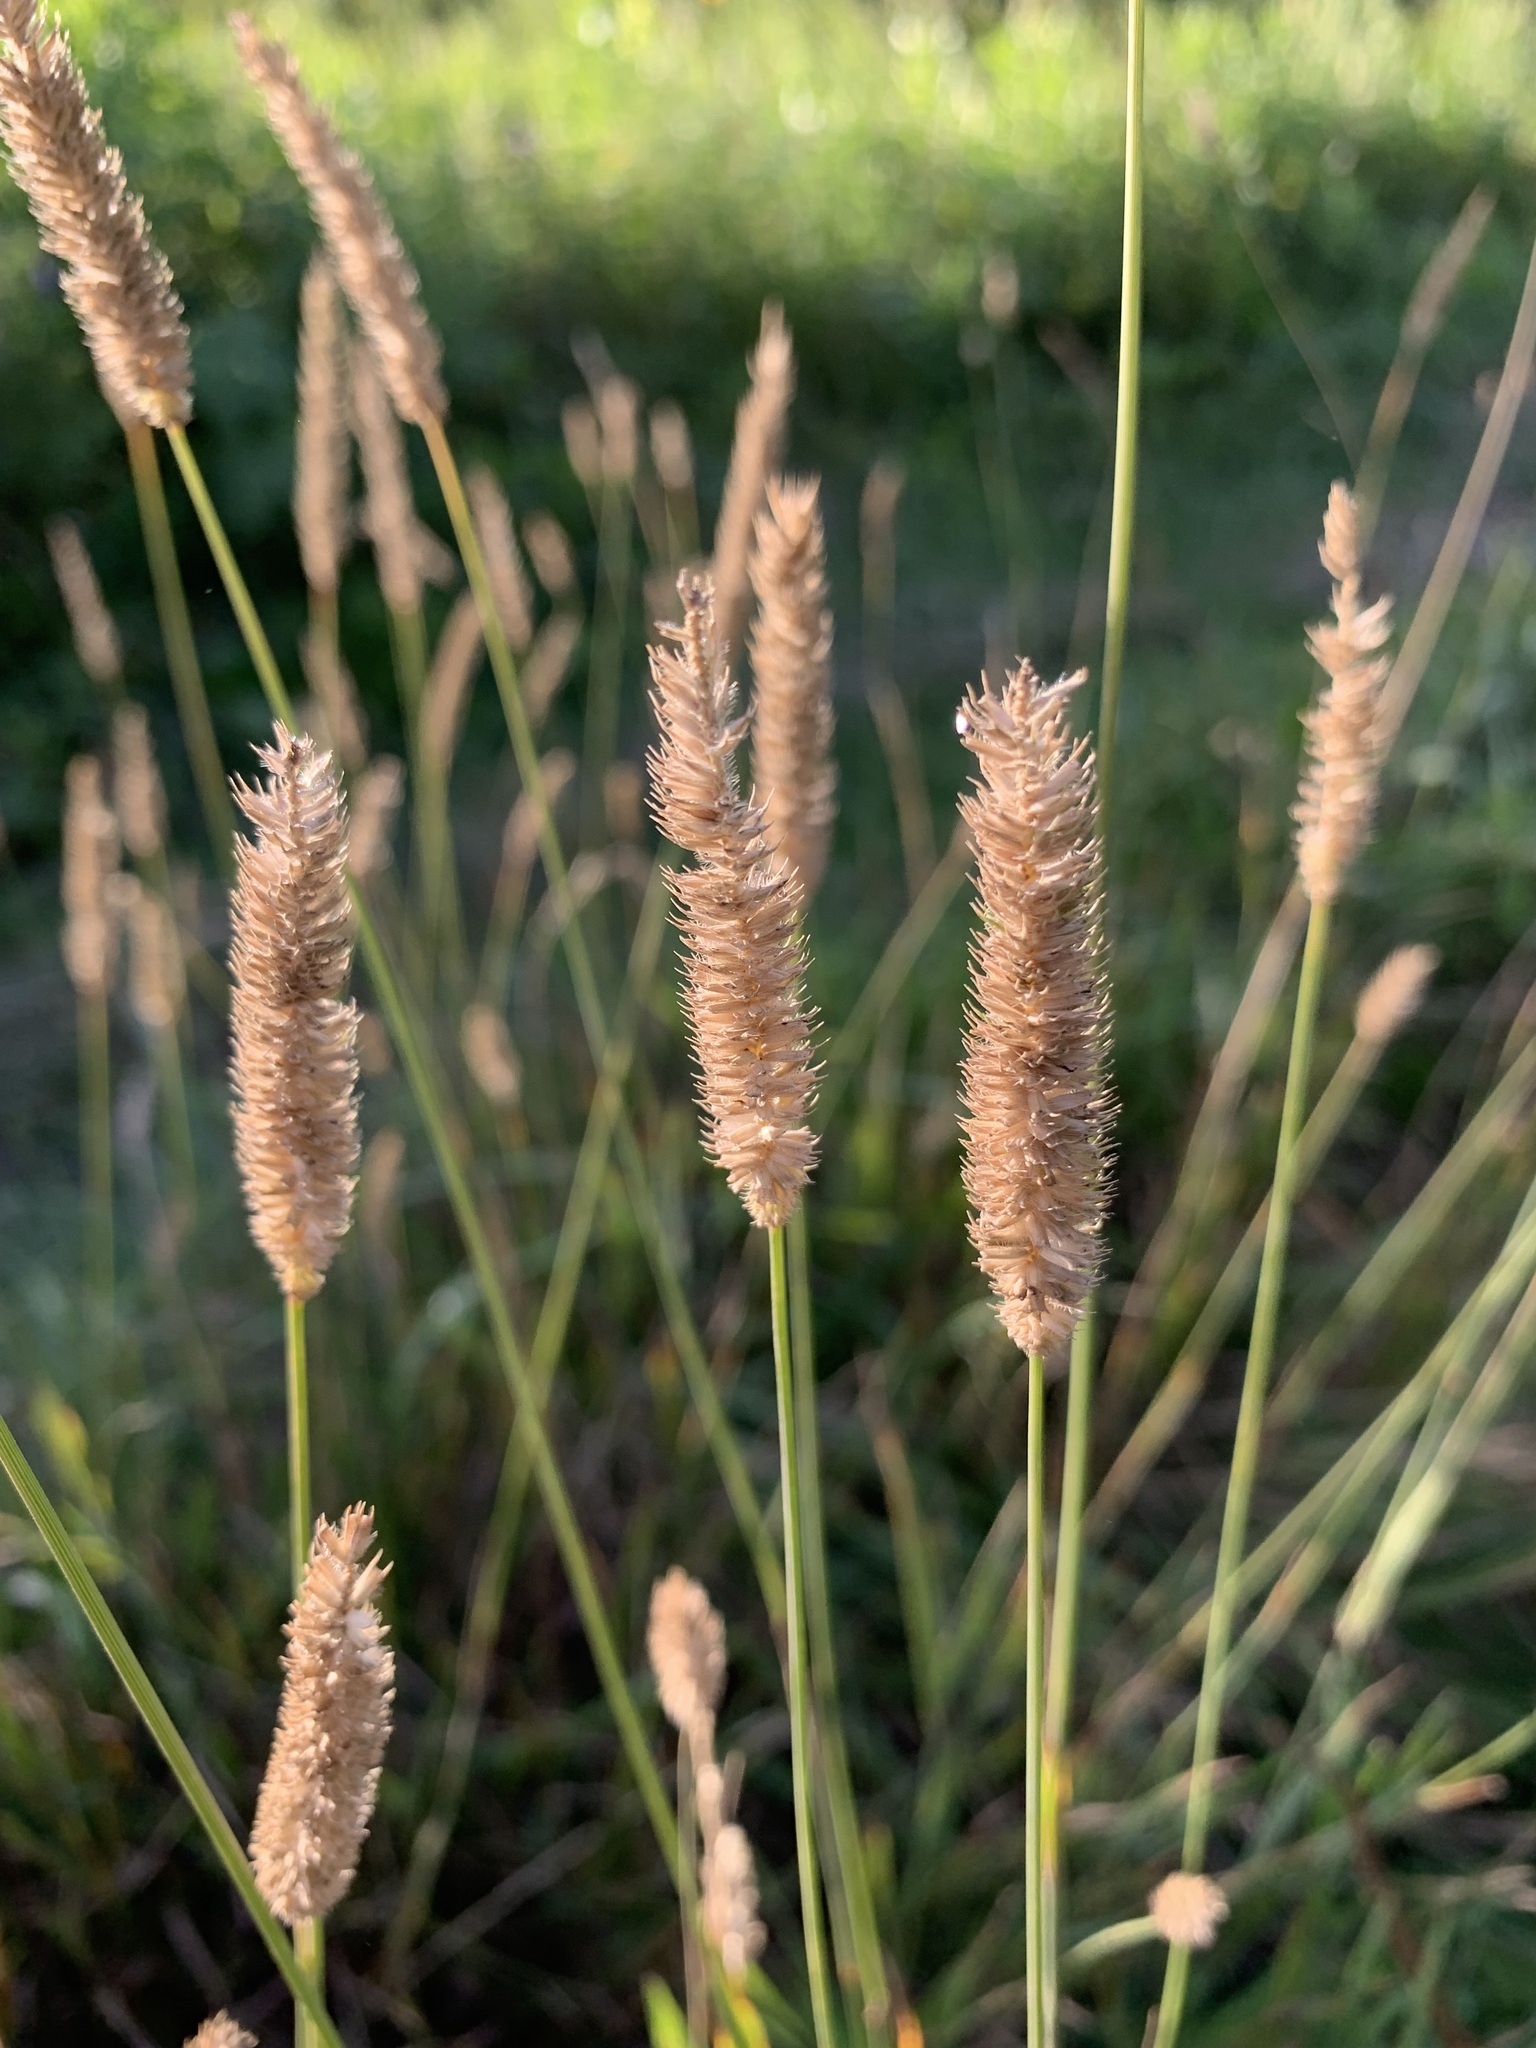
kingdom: Plantae
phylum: Tracheophyta
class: Liliopsida
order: Poales
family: Poaceae
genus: Phleum
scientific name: Phleum pratense
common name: Timothy grass
